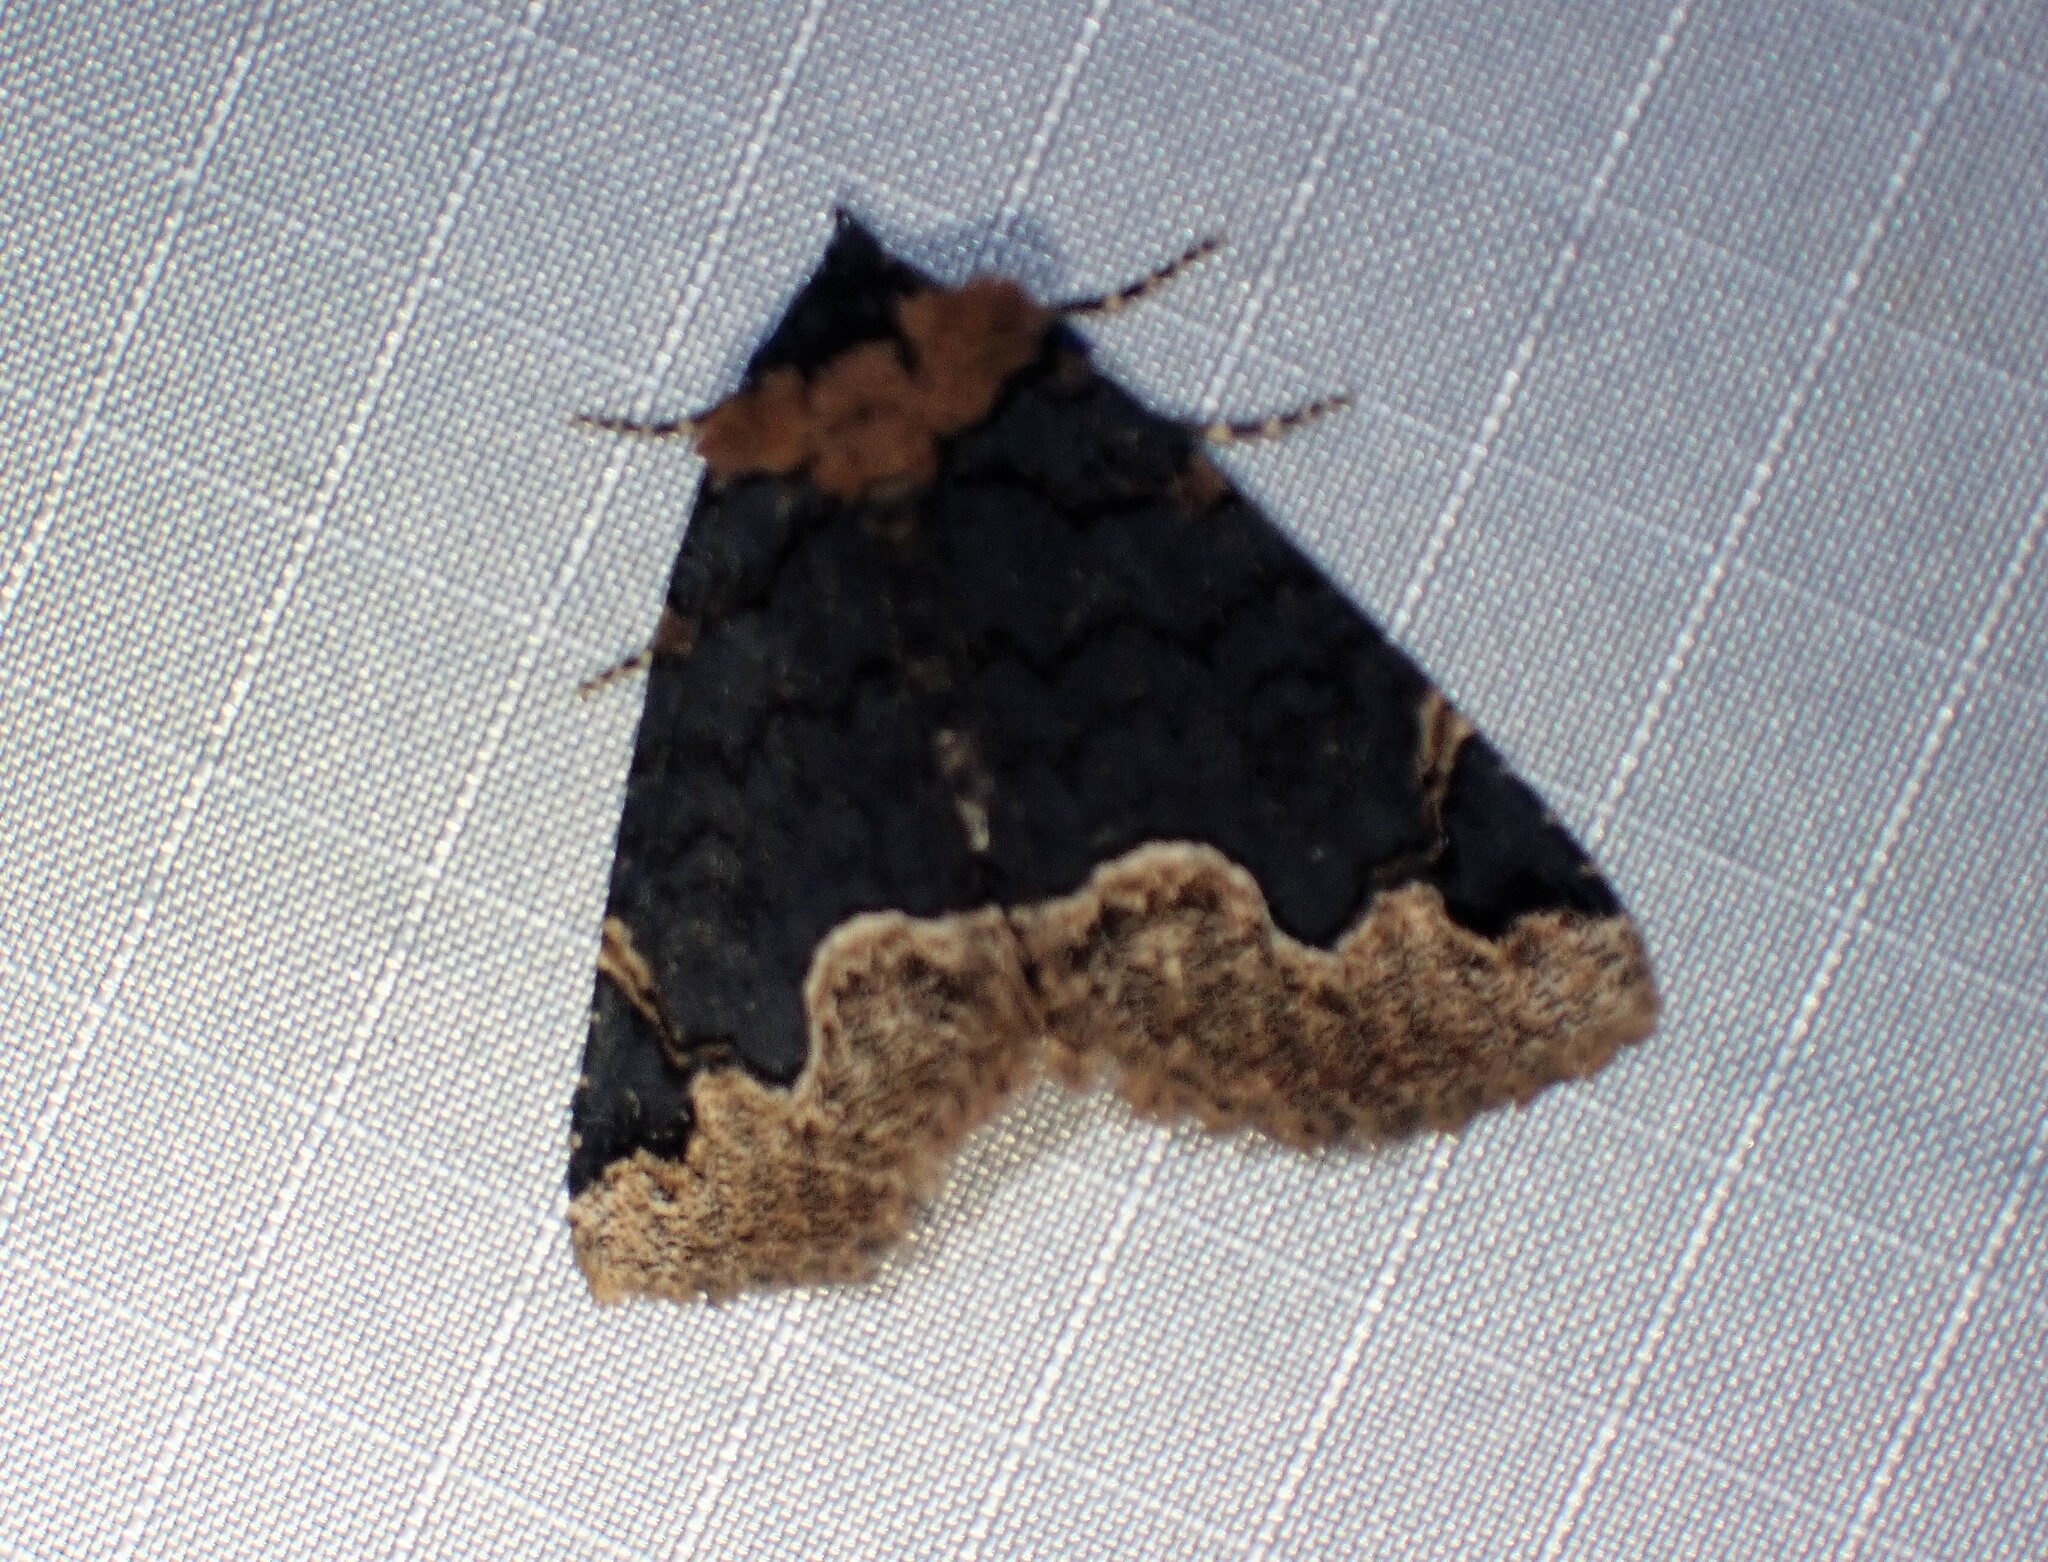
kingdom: Animalia
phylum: Arthropoda
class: Insecta
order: Lepidoptera
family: Erebidae
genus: Zale
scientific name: Zale horrida
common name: Horrid zale moth
